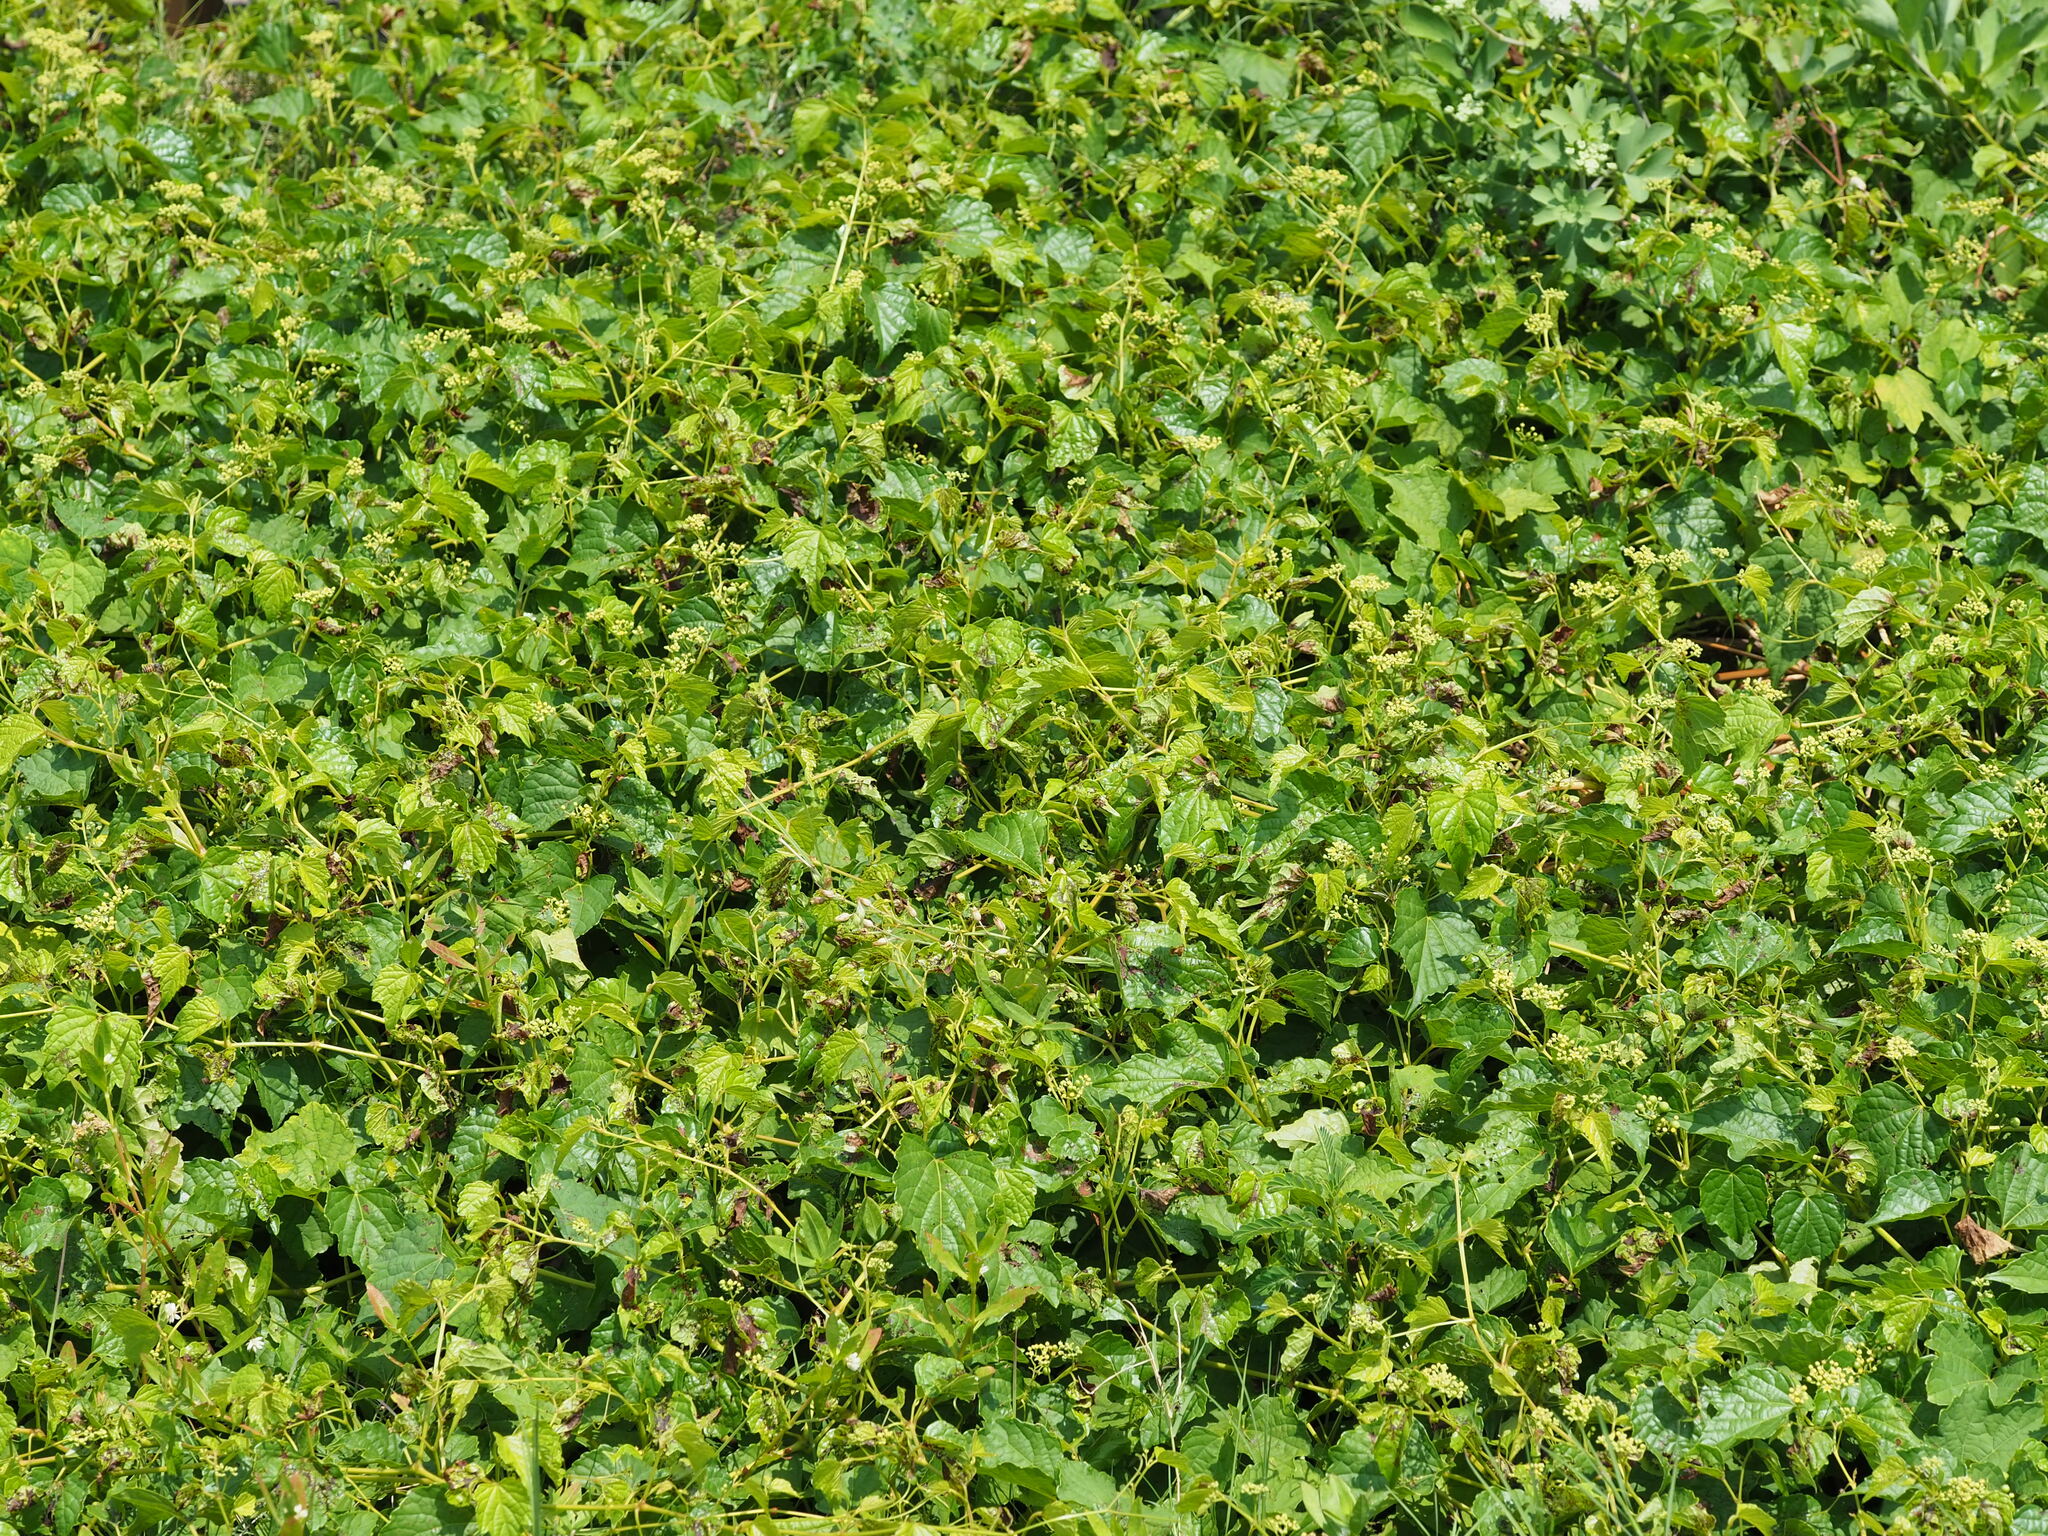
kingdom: Plantae
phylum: Tracheophyta
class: Magnoliopsida
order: Vitales
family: Vitaceae
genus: Ampelopsis
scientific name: Ampelopsis glandulosa
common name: Amur peppervine
